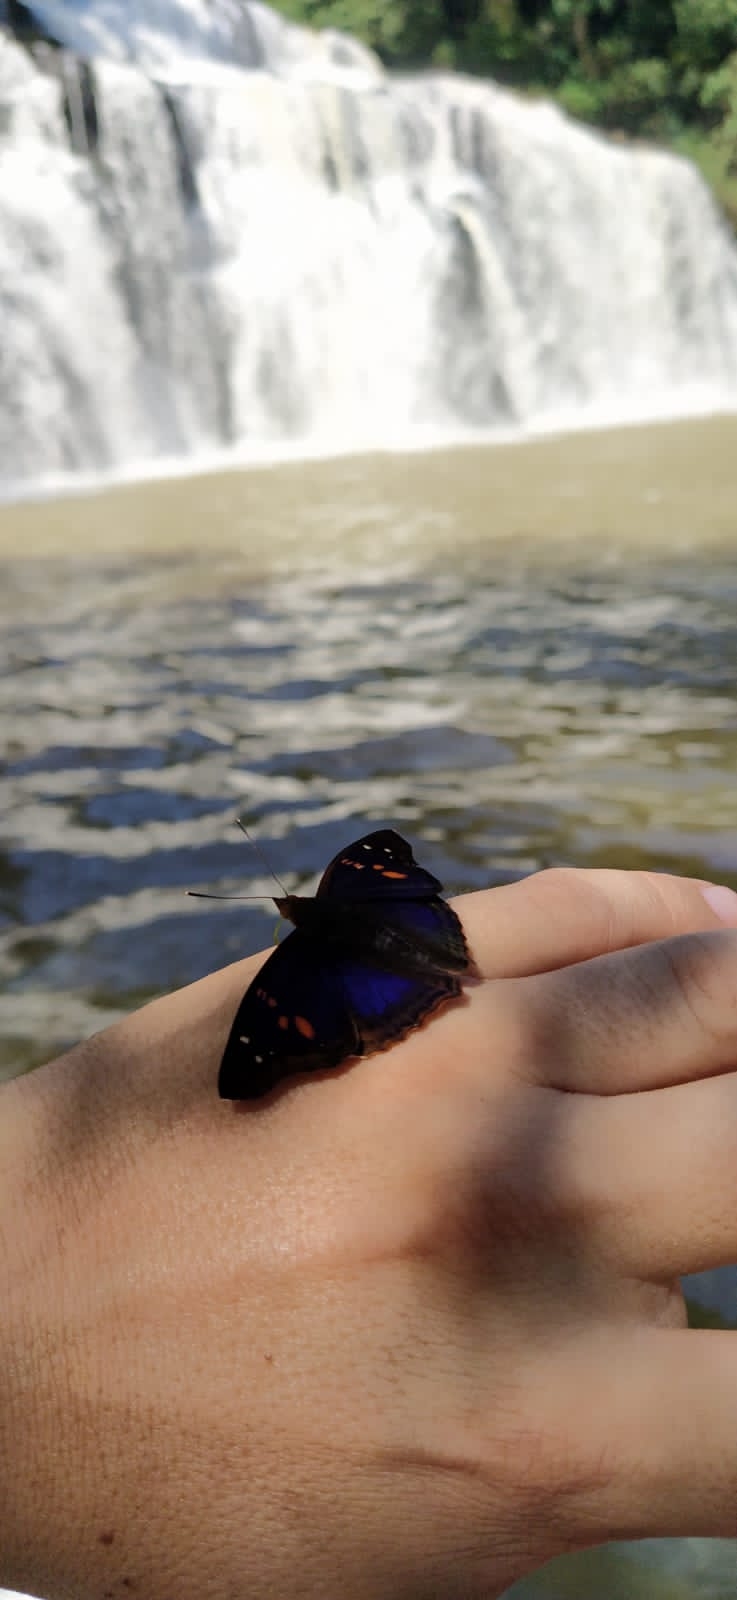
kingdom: Animalia
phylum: Arthropoda
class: Insecta
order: Lepidoptera
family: Nymphalidae
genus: Doxocopa
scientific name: Doxocopa agathina
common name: Agathina emperor
